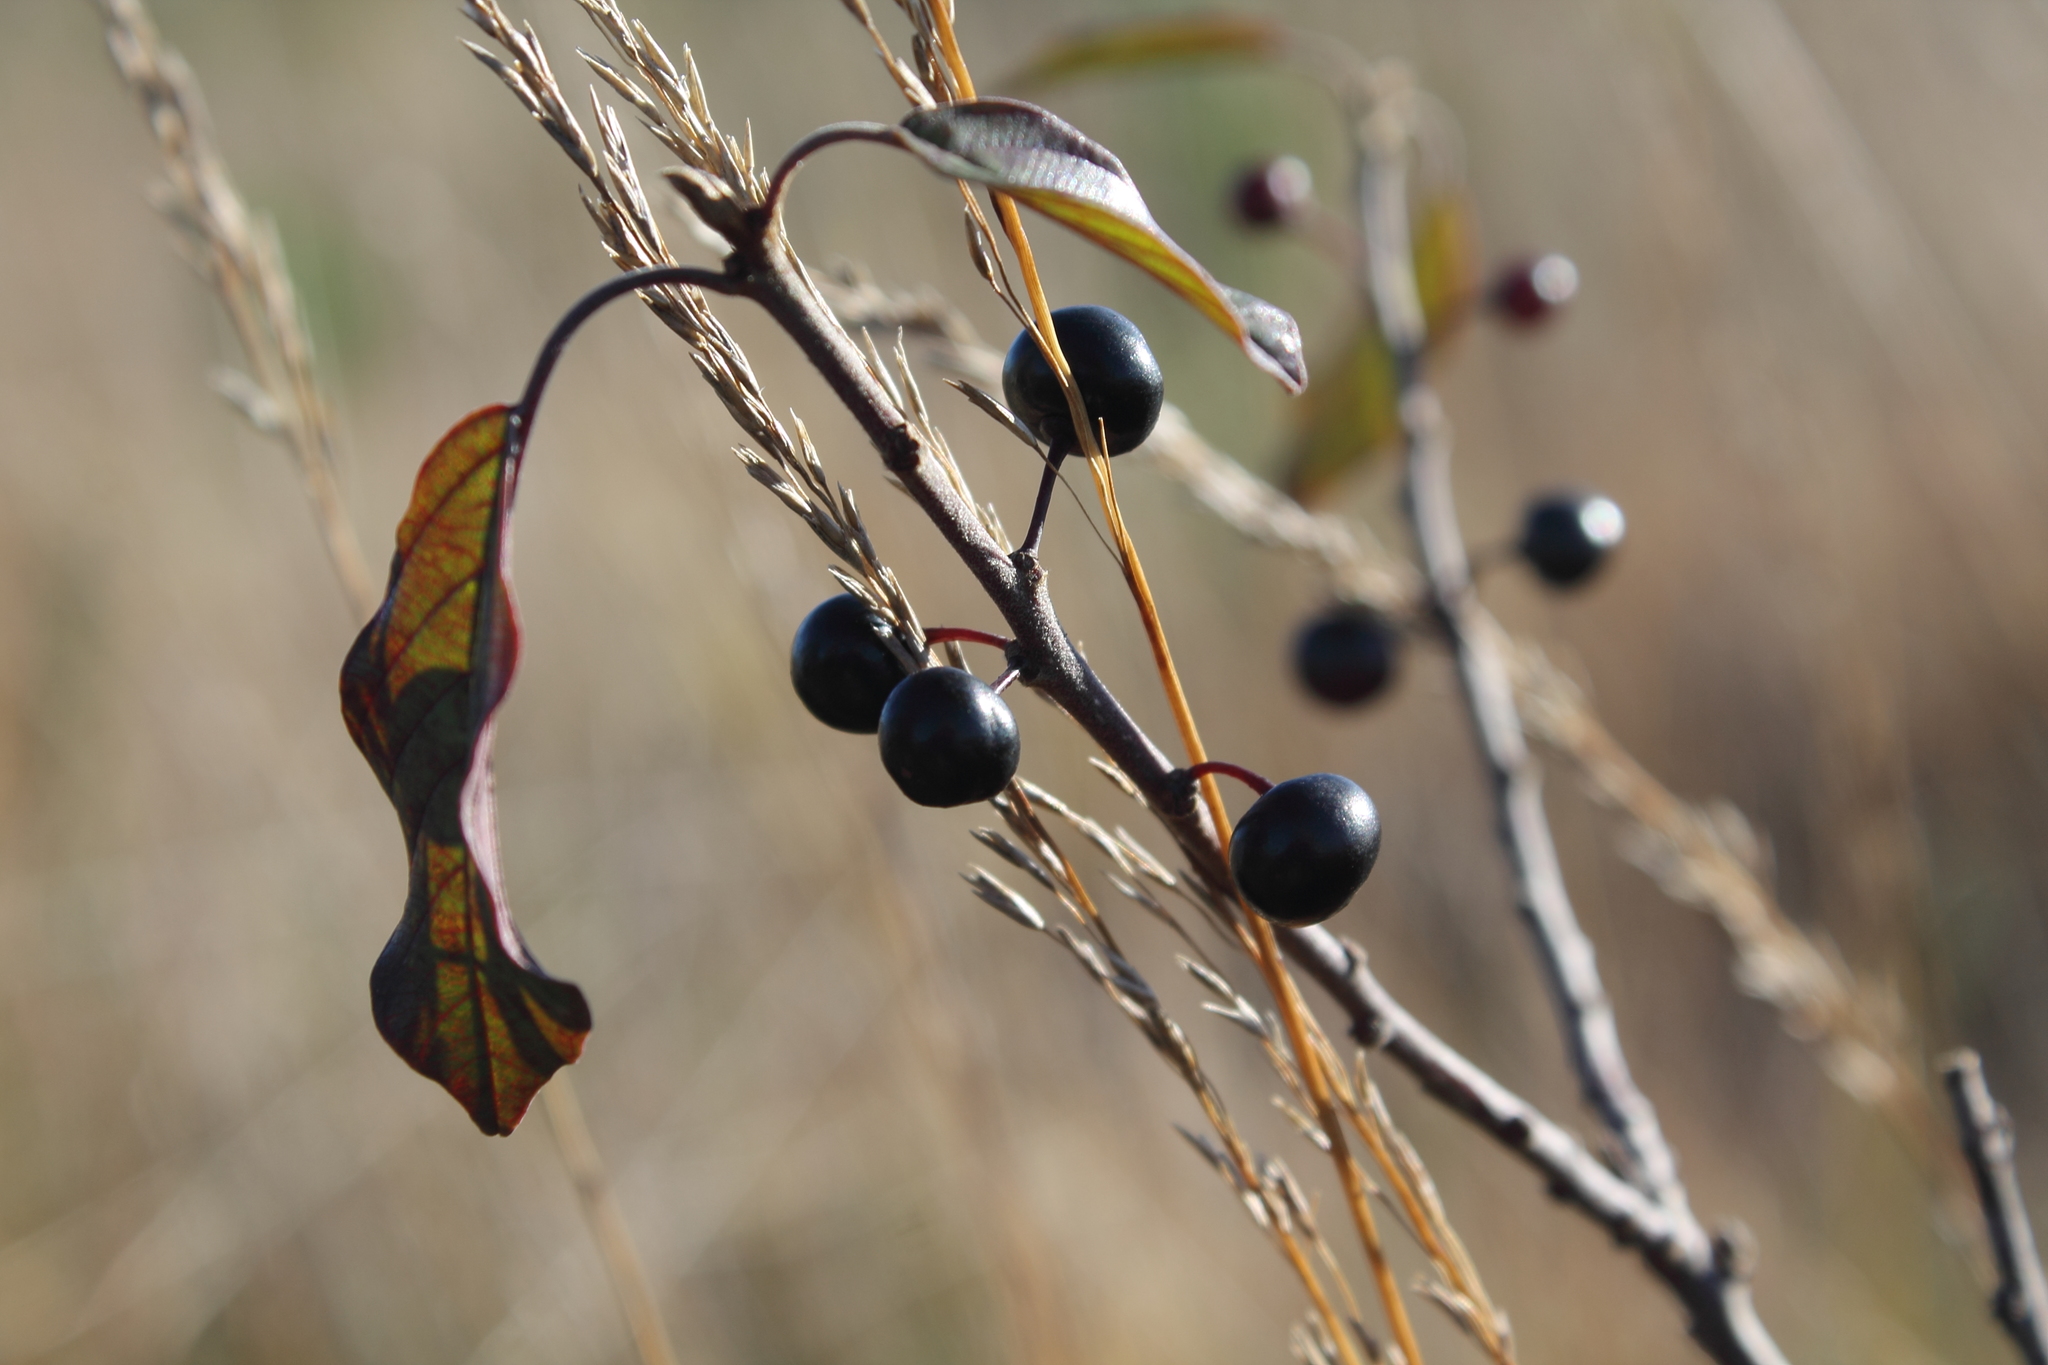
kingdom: Plantae
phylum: Tracheophyta
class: Magnoliopsida
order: Rosales
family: Rhamnaceae
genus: Frangula
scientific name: Frangula alnus
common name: Alder buckthorn
